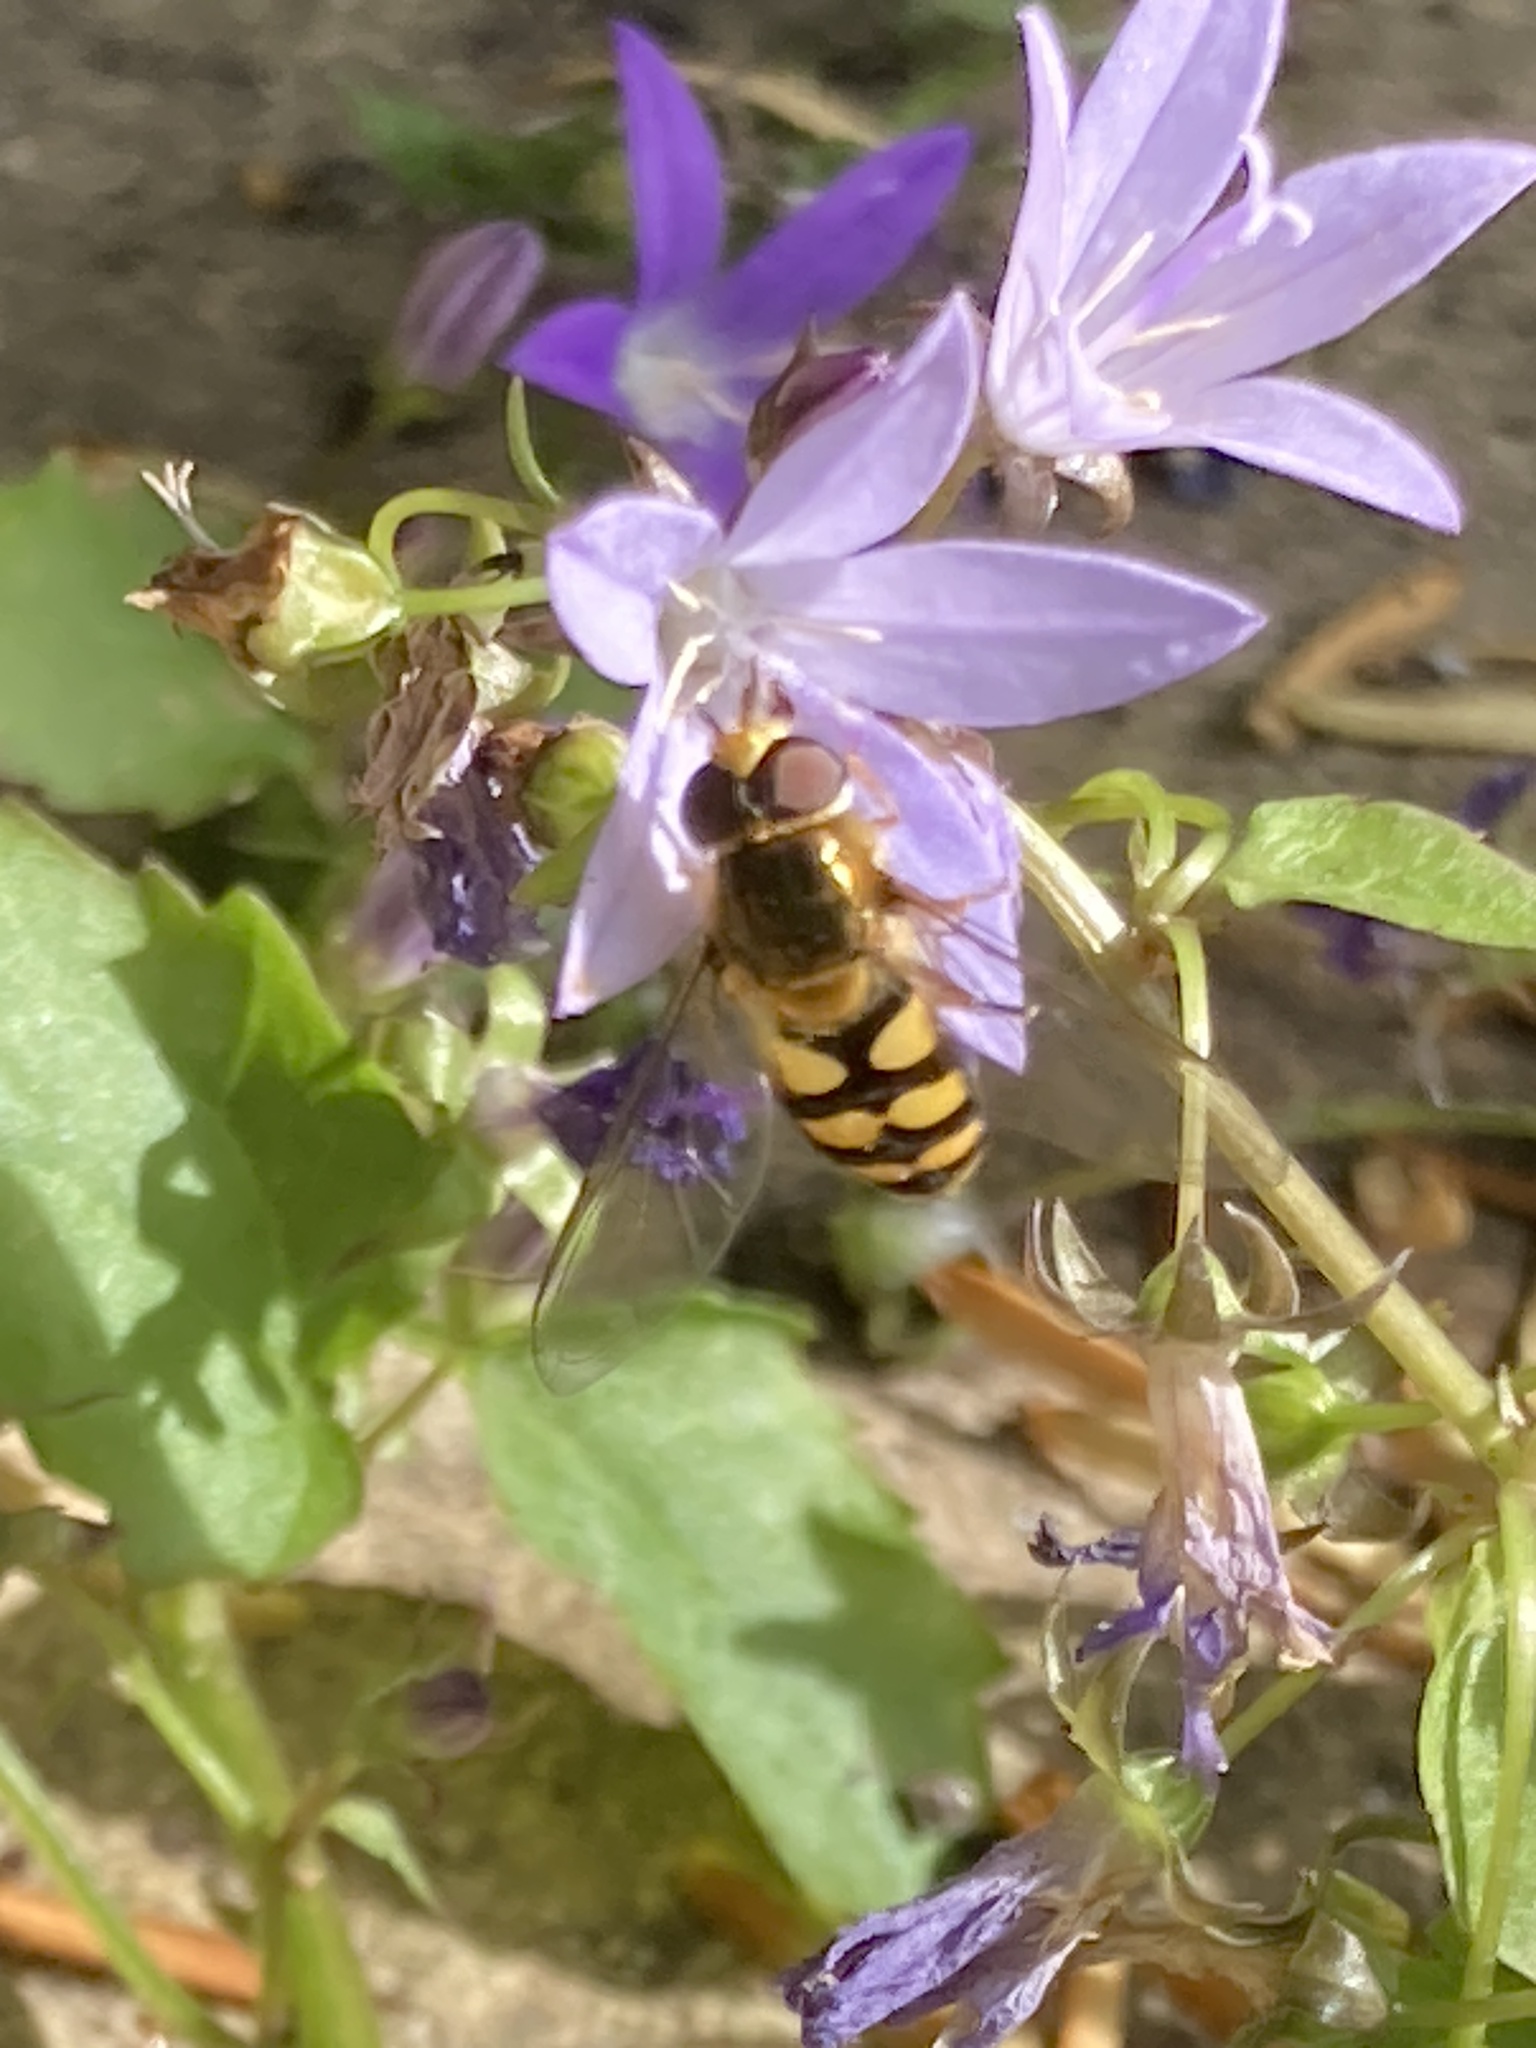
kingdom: Animalia
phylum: Arthropoda
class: Insecta
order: Diptera
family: Syrphidae
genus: Eupeodes
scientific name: Eupeodes
